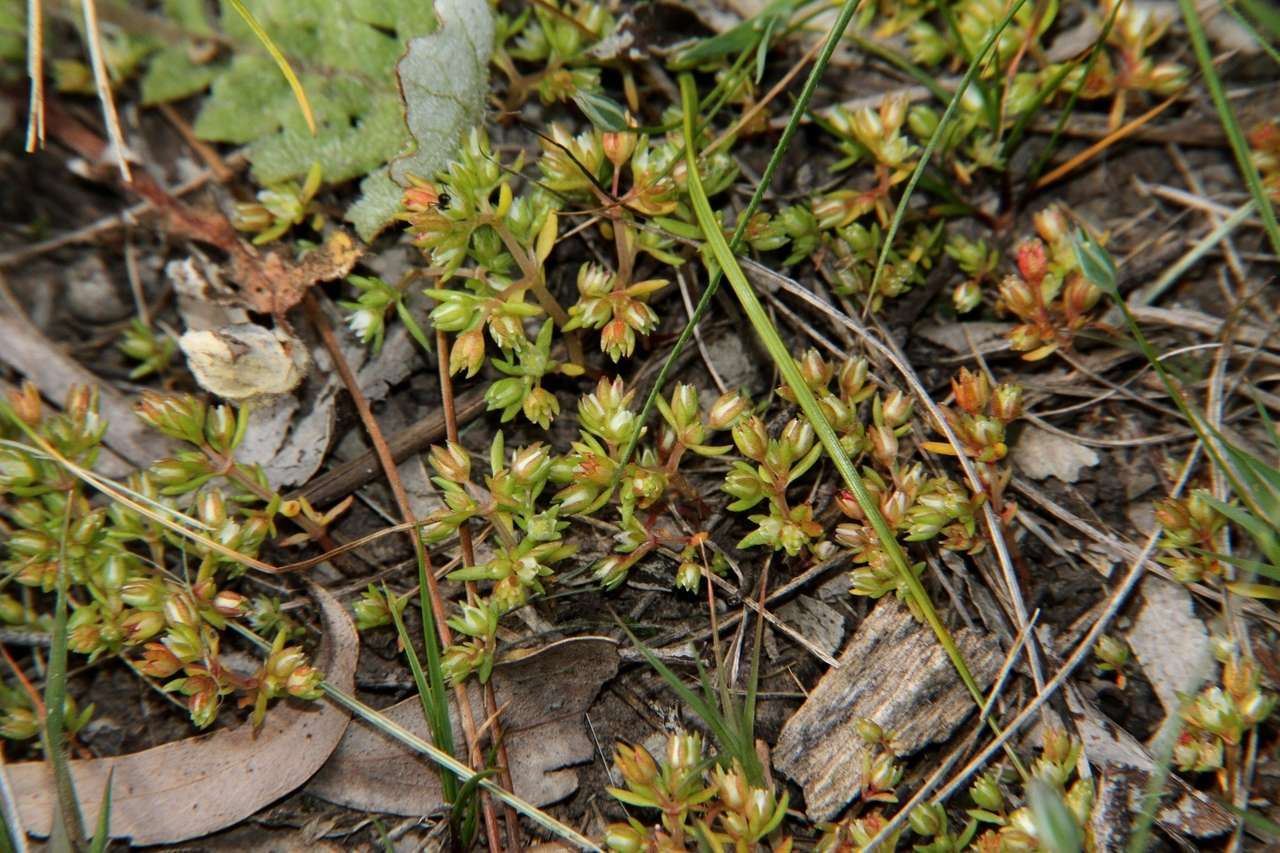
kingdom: Plantae
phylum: Tracheophyta
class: Magnoliopsida
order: Saxifragales
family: Crassulaceae
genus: Crassula
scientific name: Crassula decumbens
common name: Scilly pigmyweed
